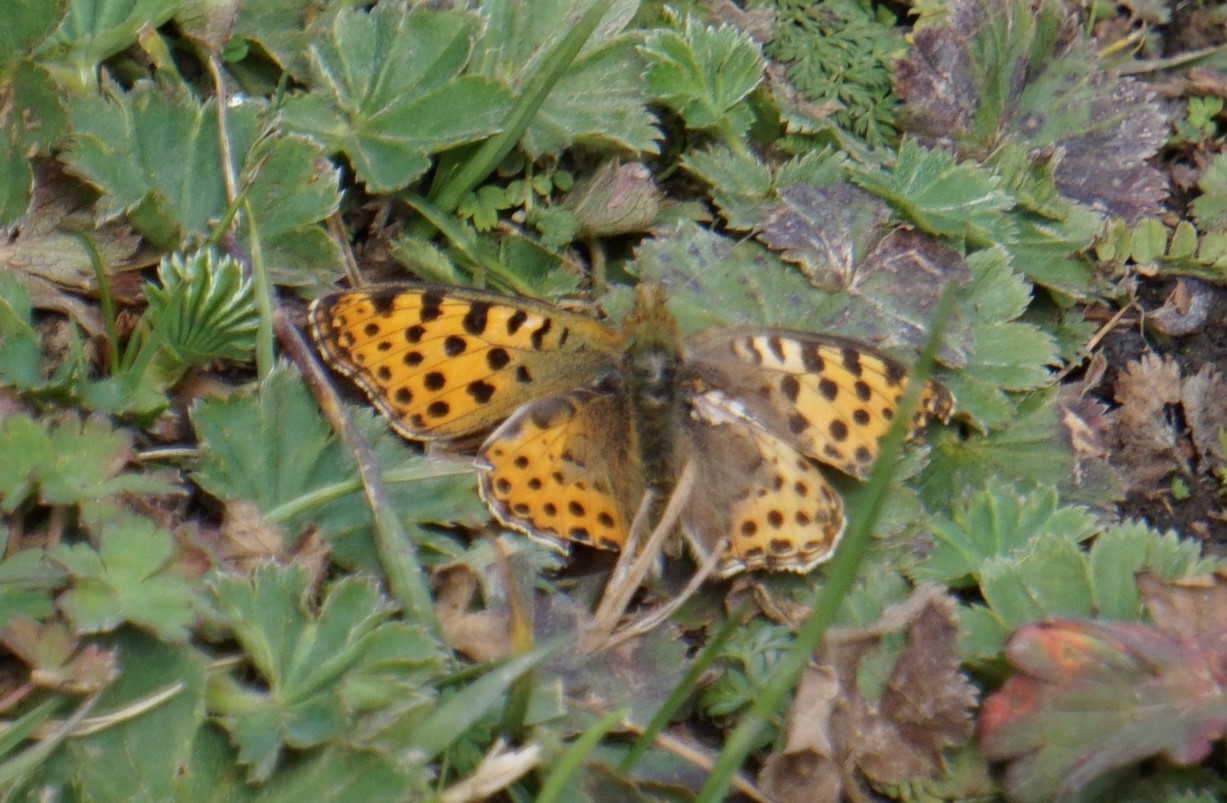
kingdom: Animalia
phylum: Arthropoda
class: Insecta
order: Lepidoptera
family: Nymphalidae
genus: Issoria
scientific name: Issoria lathonia
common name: Queen of spain fritillary
